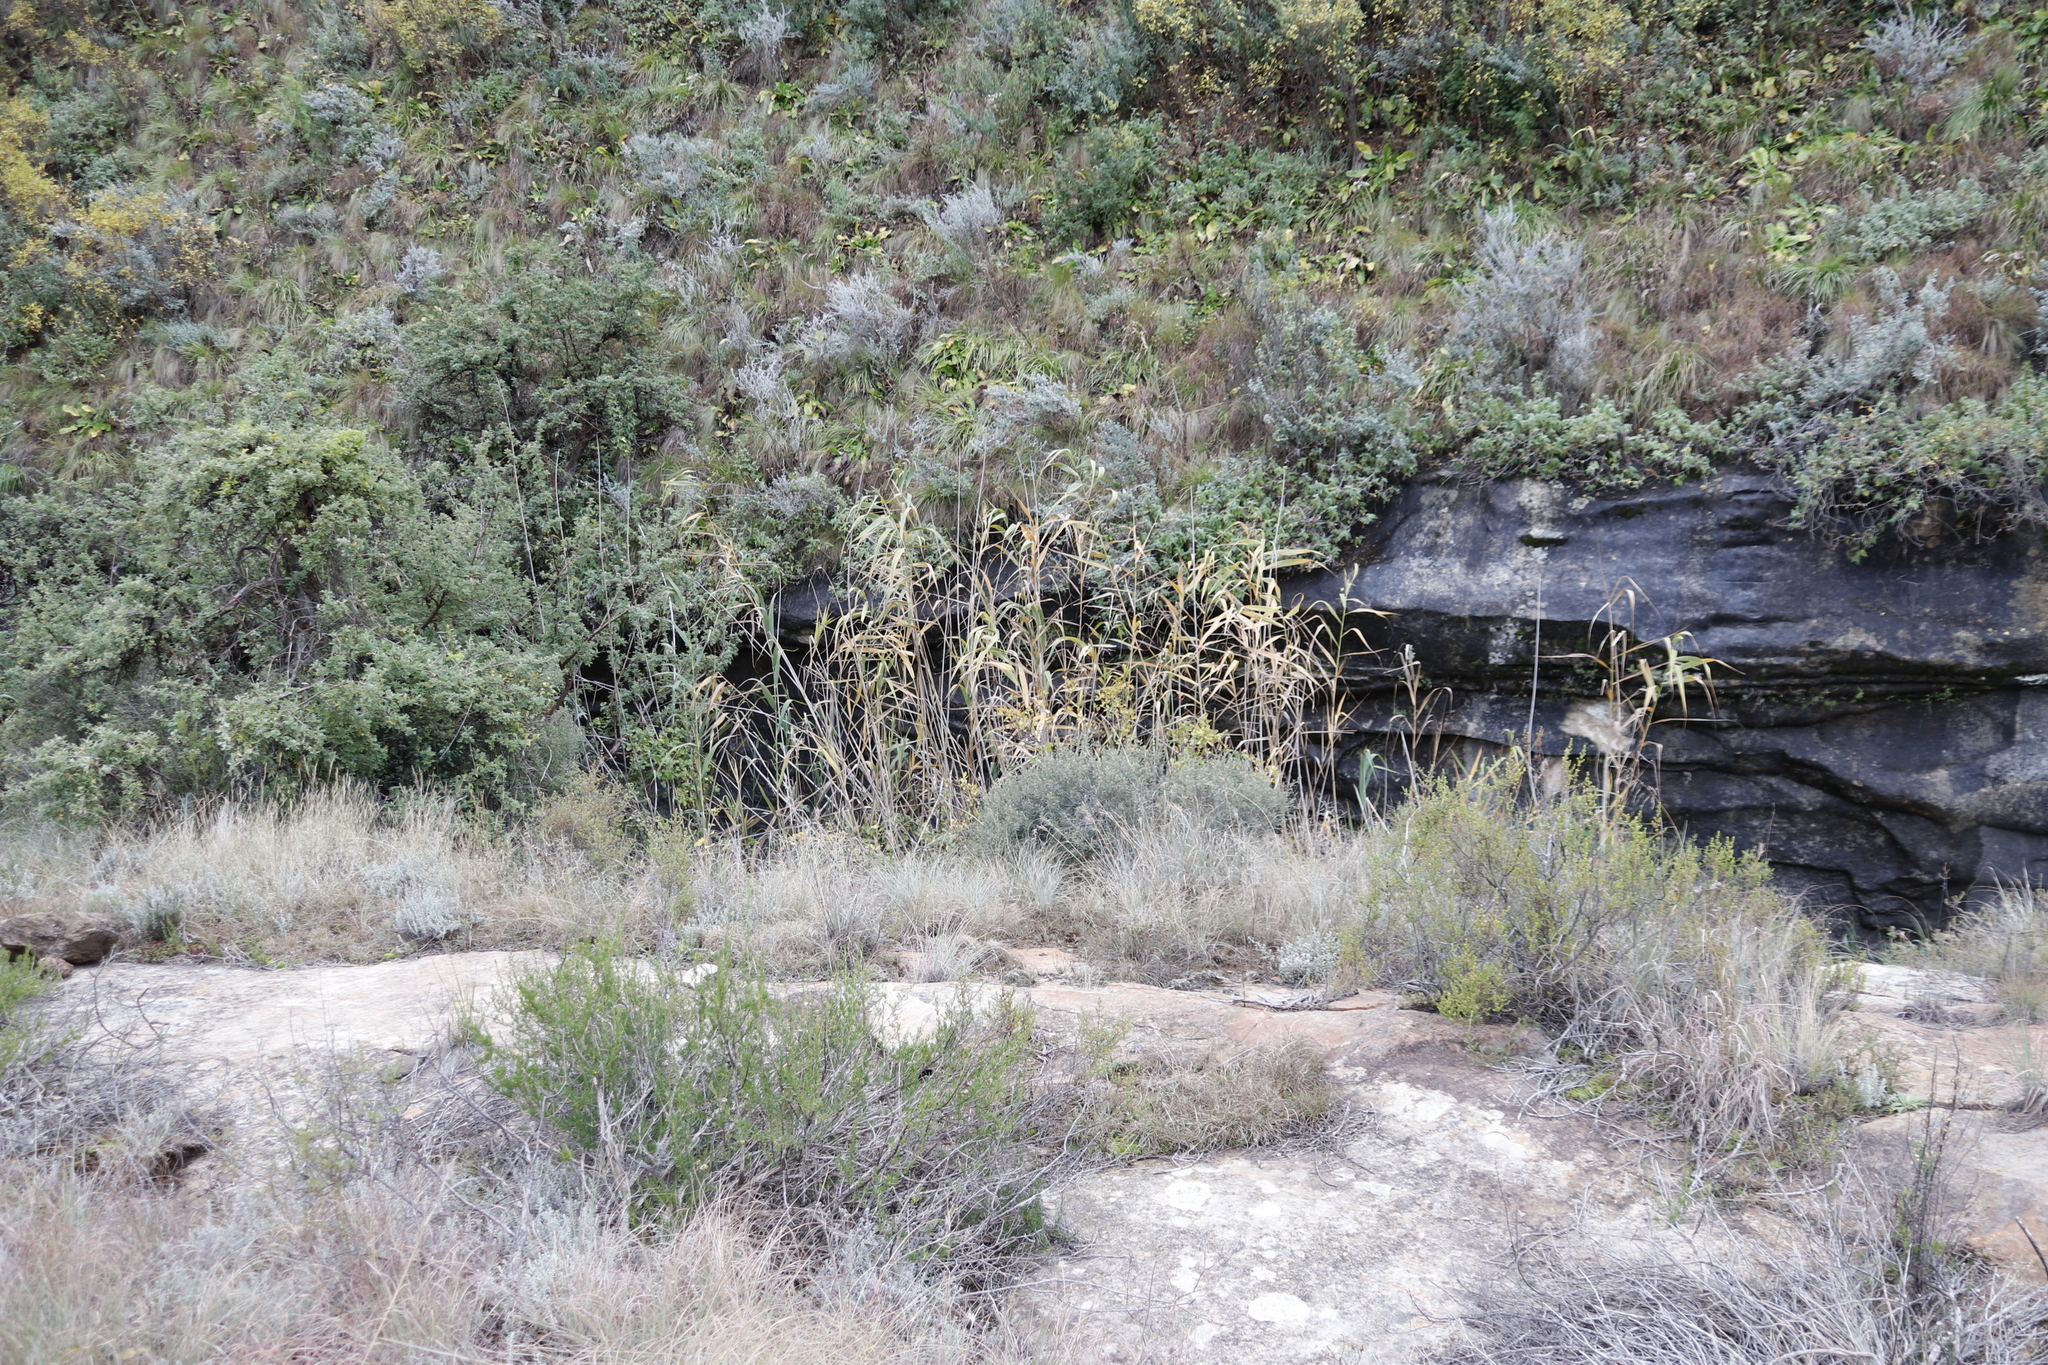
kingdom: Plantae
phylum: Tracheophyta
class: Liliopsida
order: Poales
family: Poaceae
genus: Phragmites
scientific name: Phragmites australis
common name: Common reed
